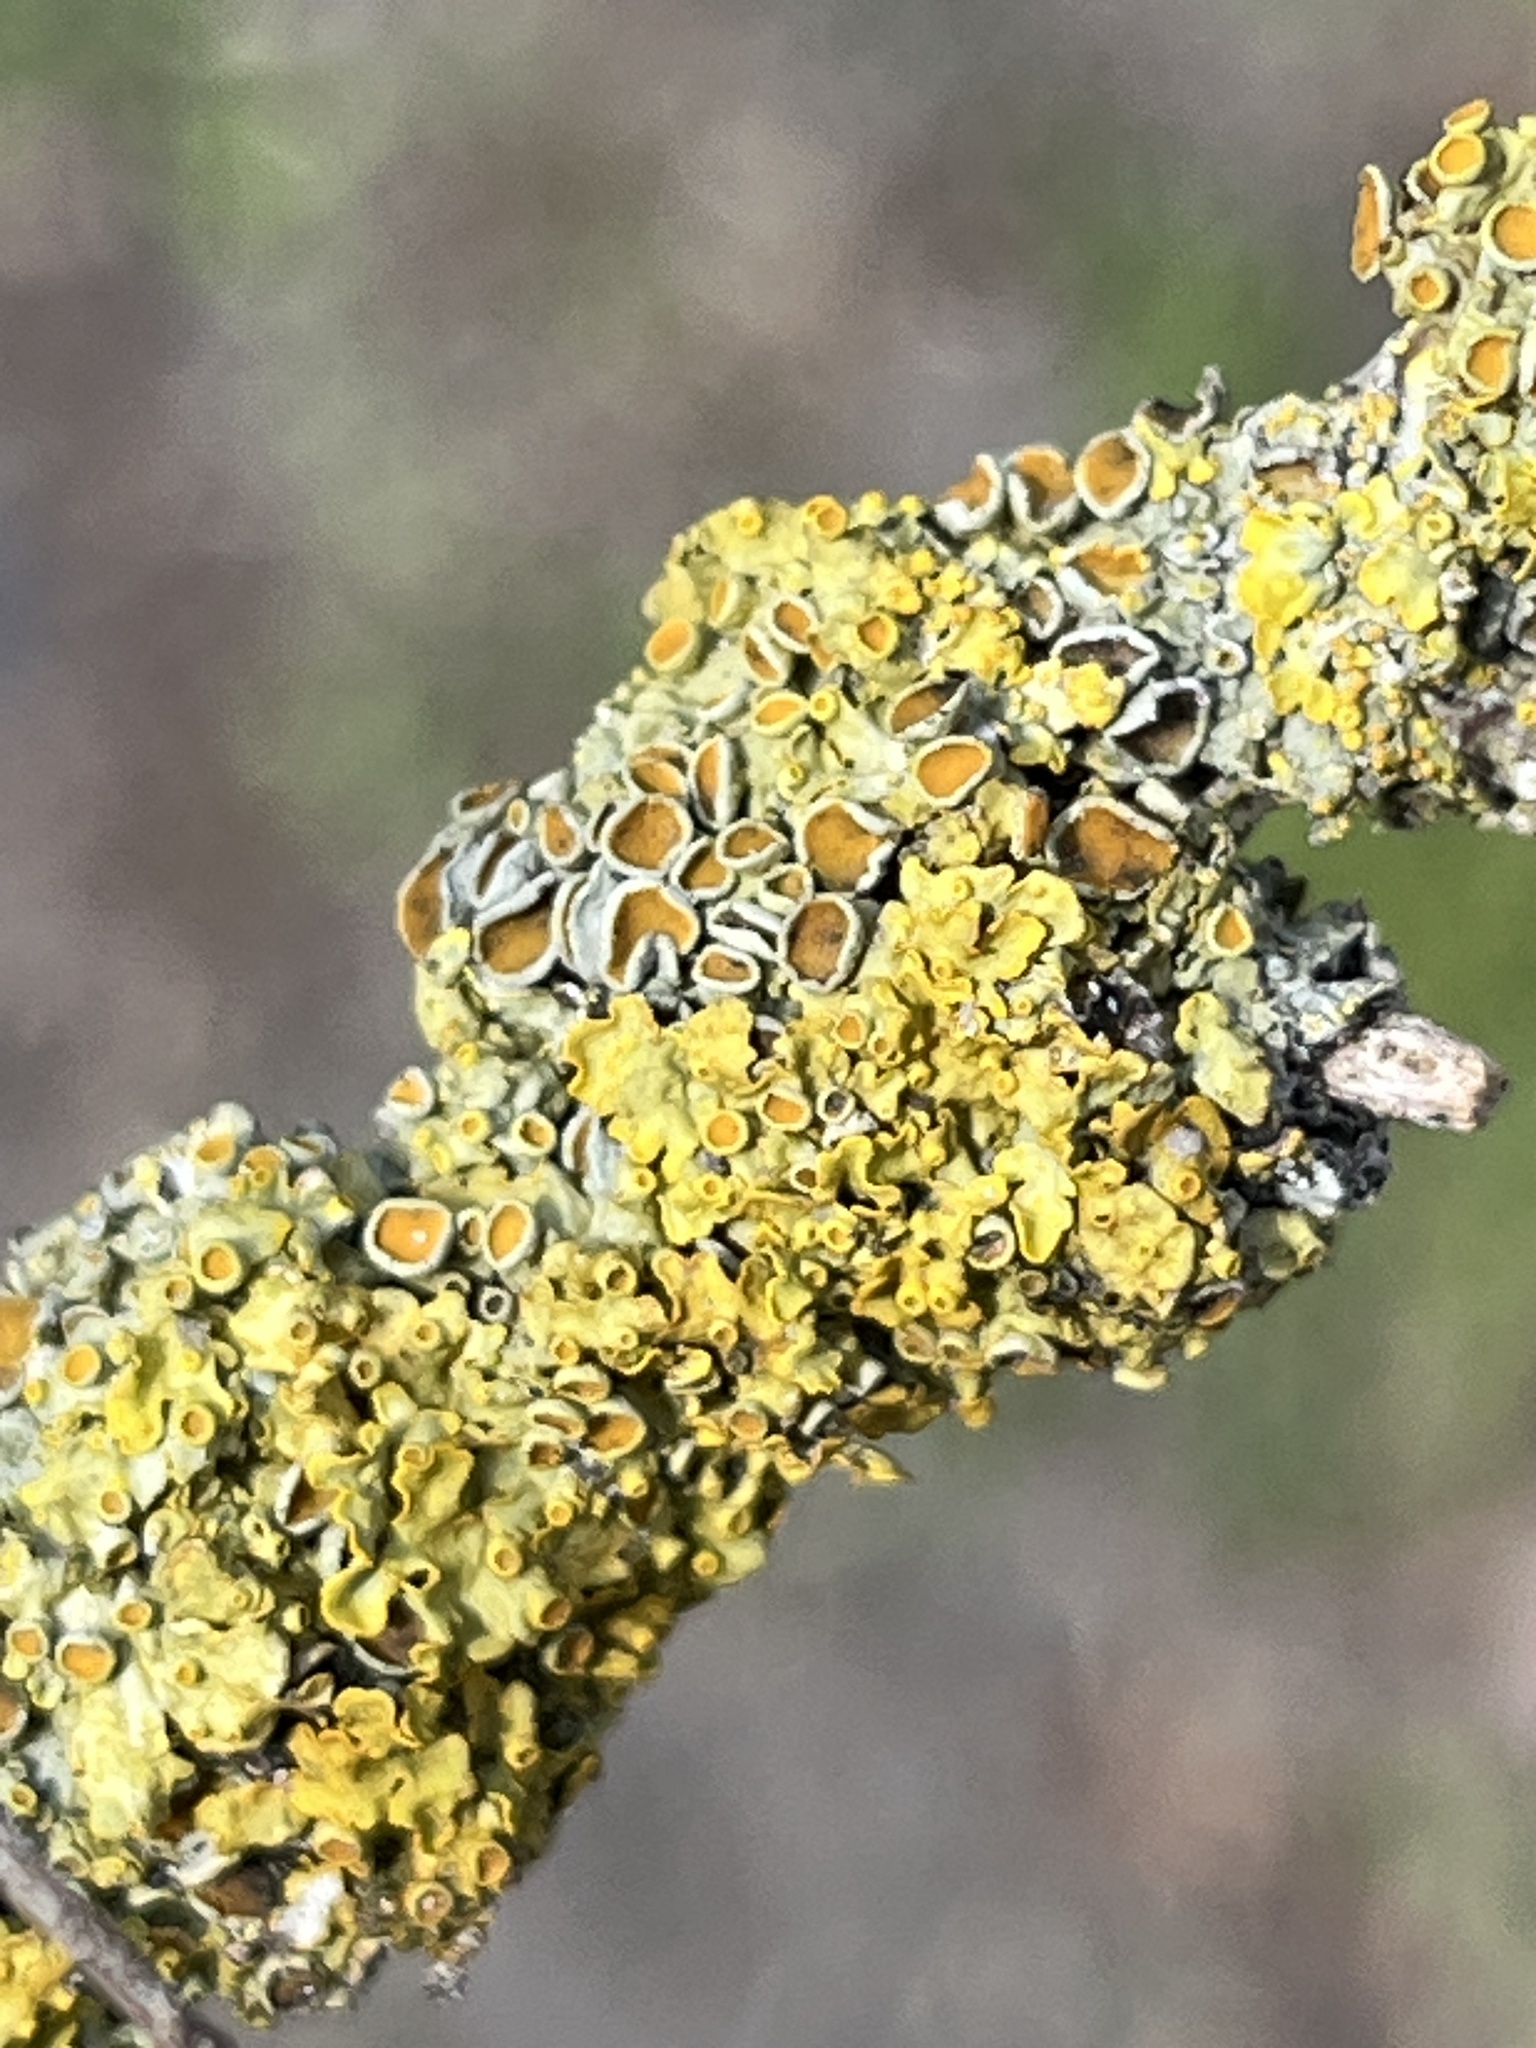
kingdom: Fungi
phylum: Ascomycota
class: Lecanoromycetes
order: Teloschistales
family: Teloschistaceae
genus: Xanthoria
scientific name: Xanthoria parietina
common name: Common orange lichen
